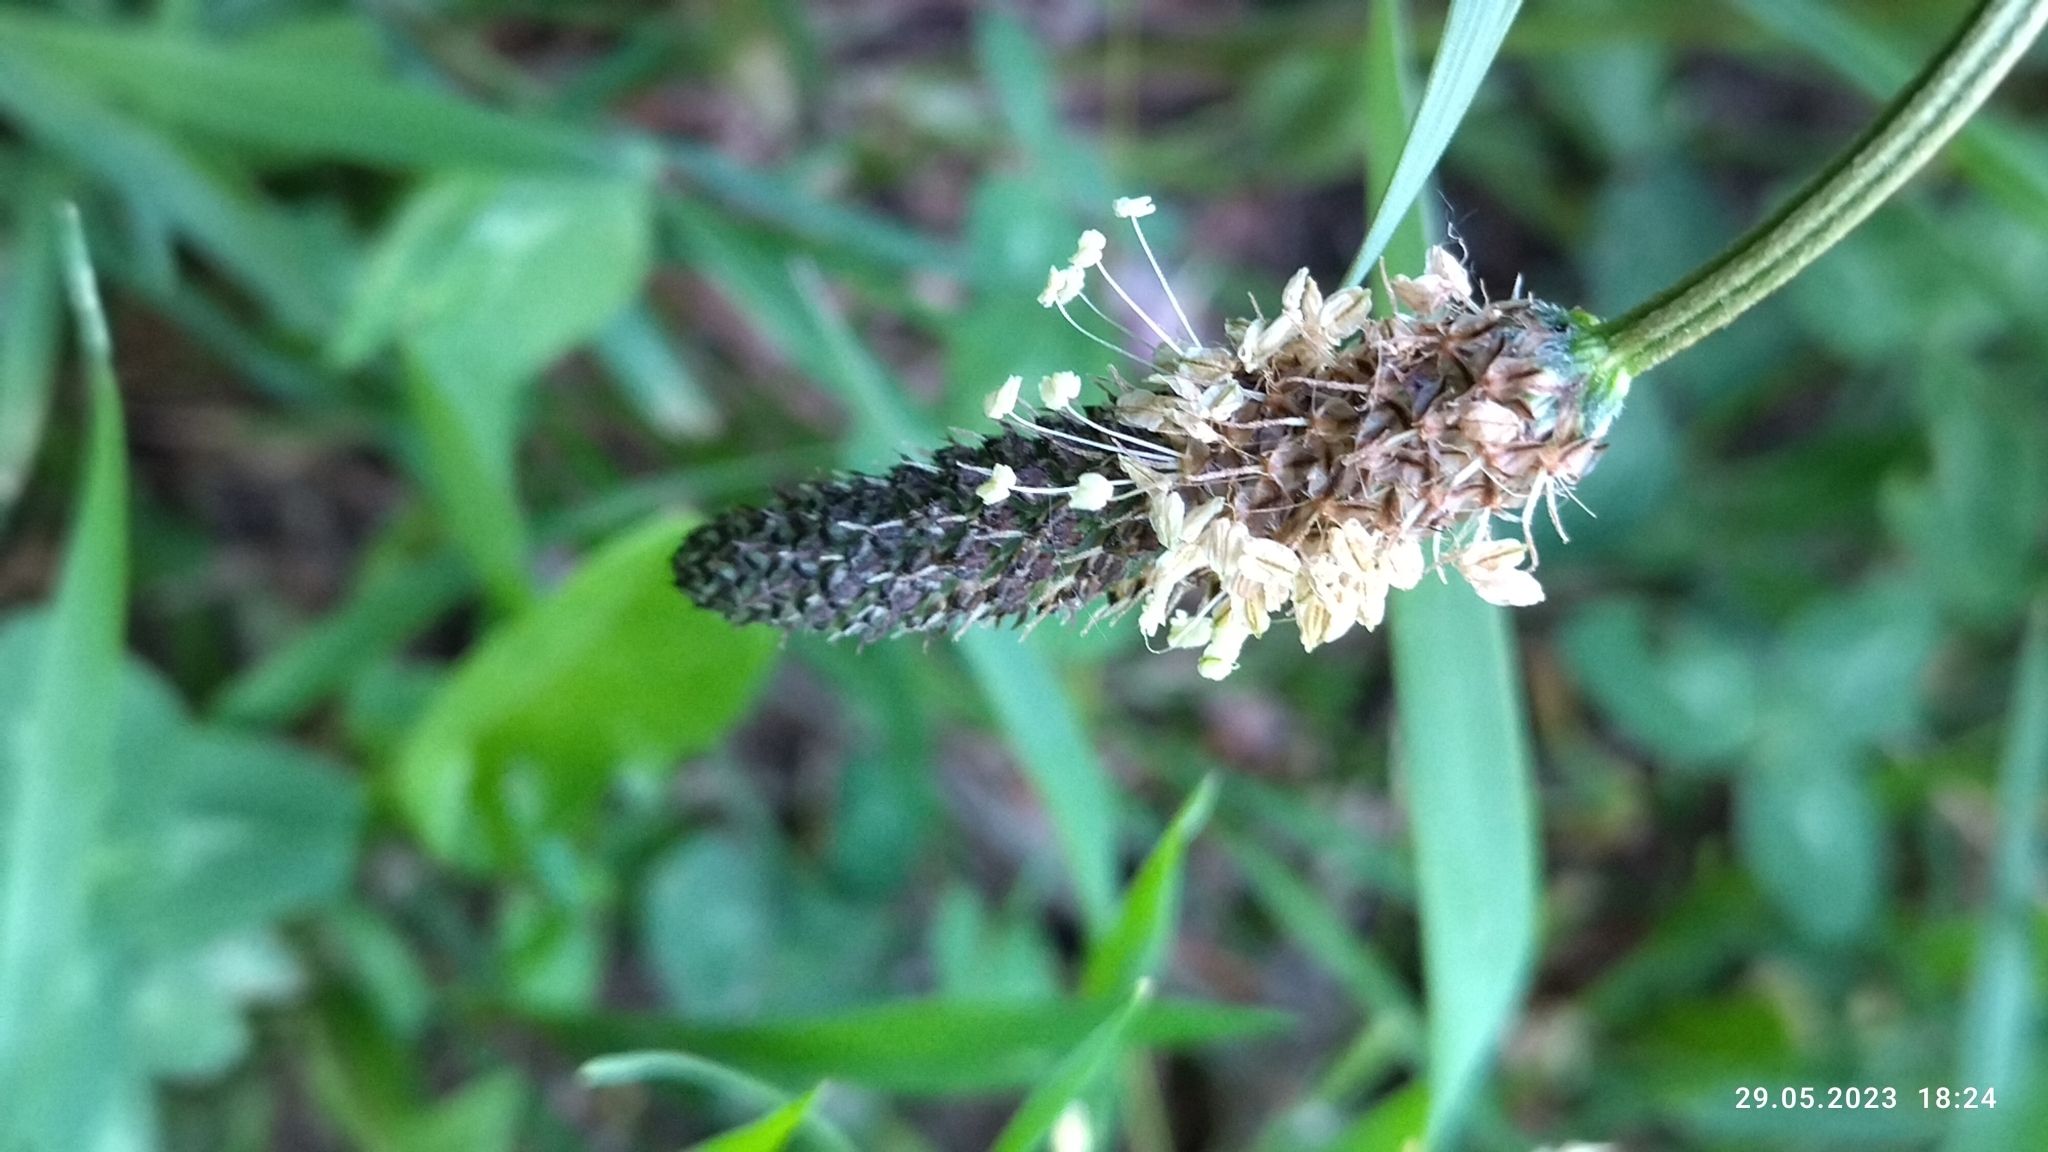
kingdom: Plantae
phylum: Tracheophyta
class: Magnoliopsida
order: Lamiales
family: Plantaginaceae
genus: Plantago
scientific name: Plantago lanceolata
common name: Ribwort plantain
